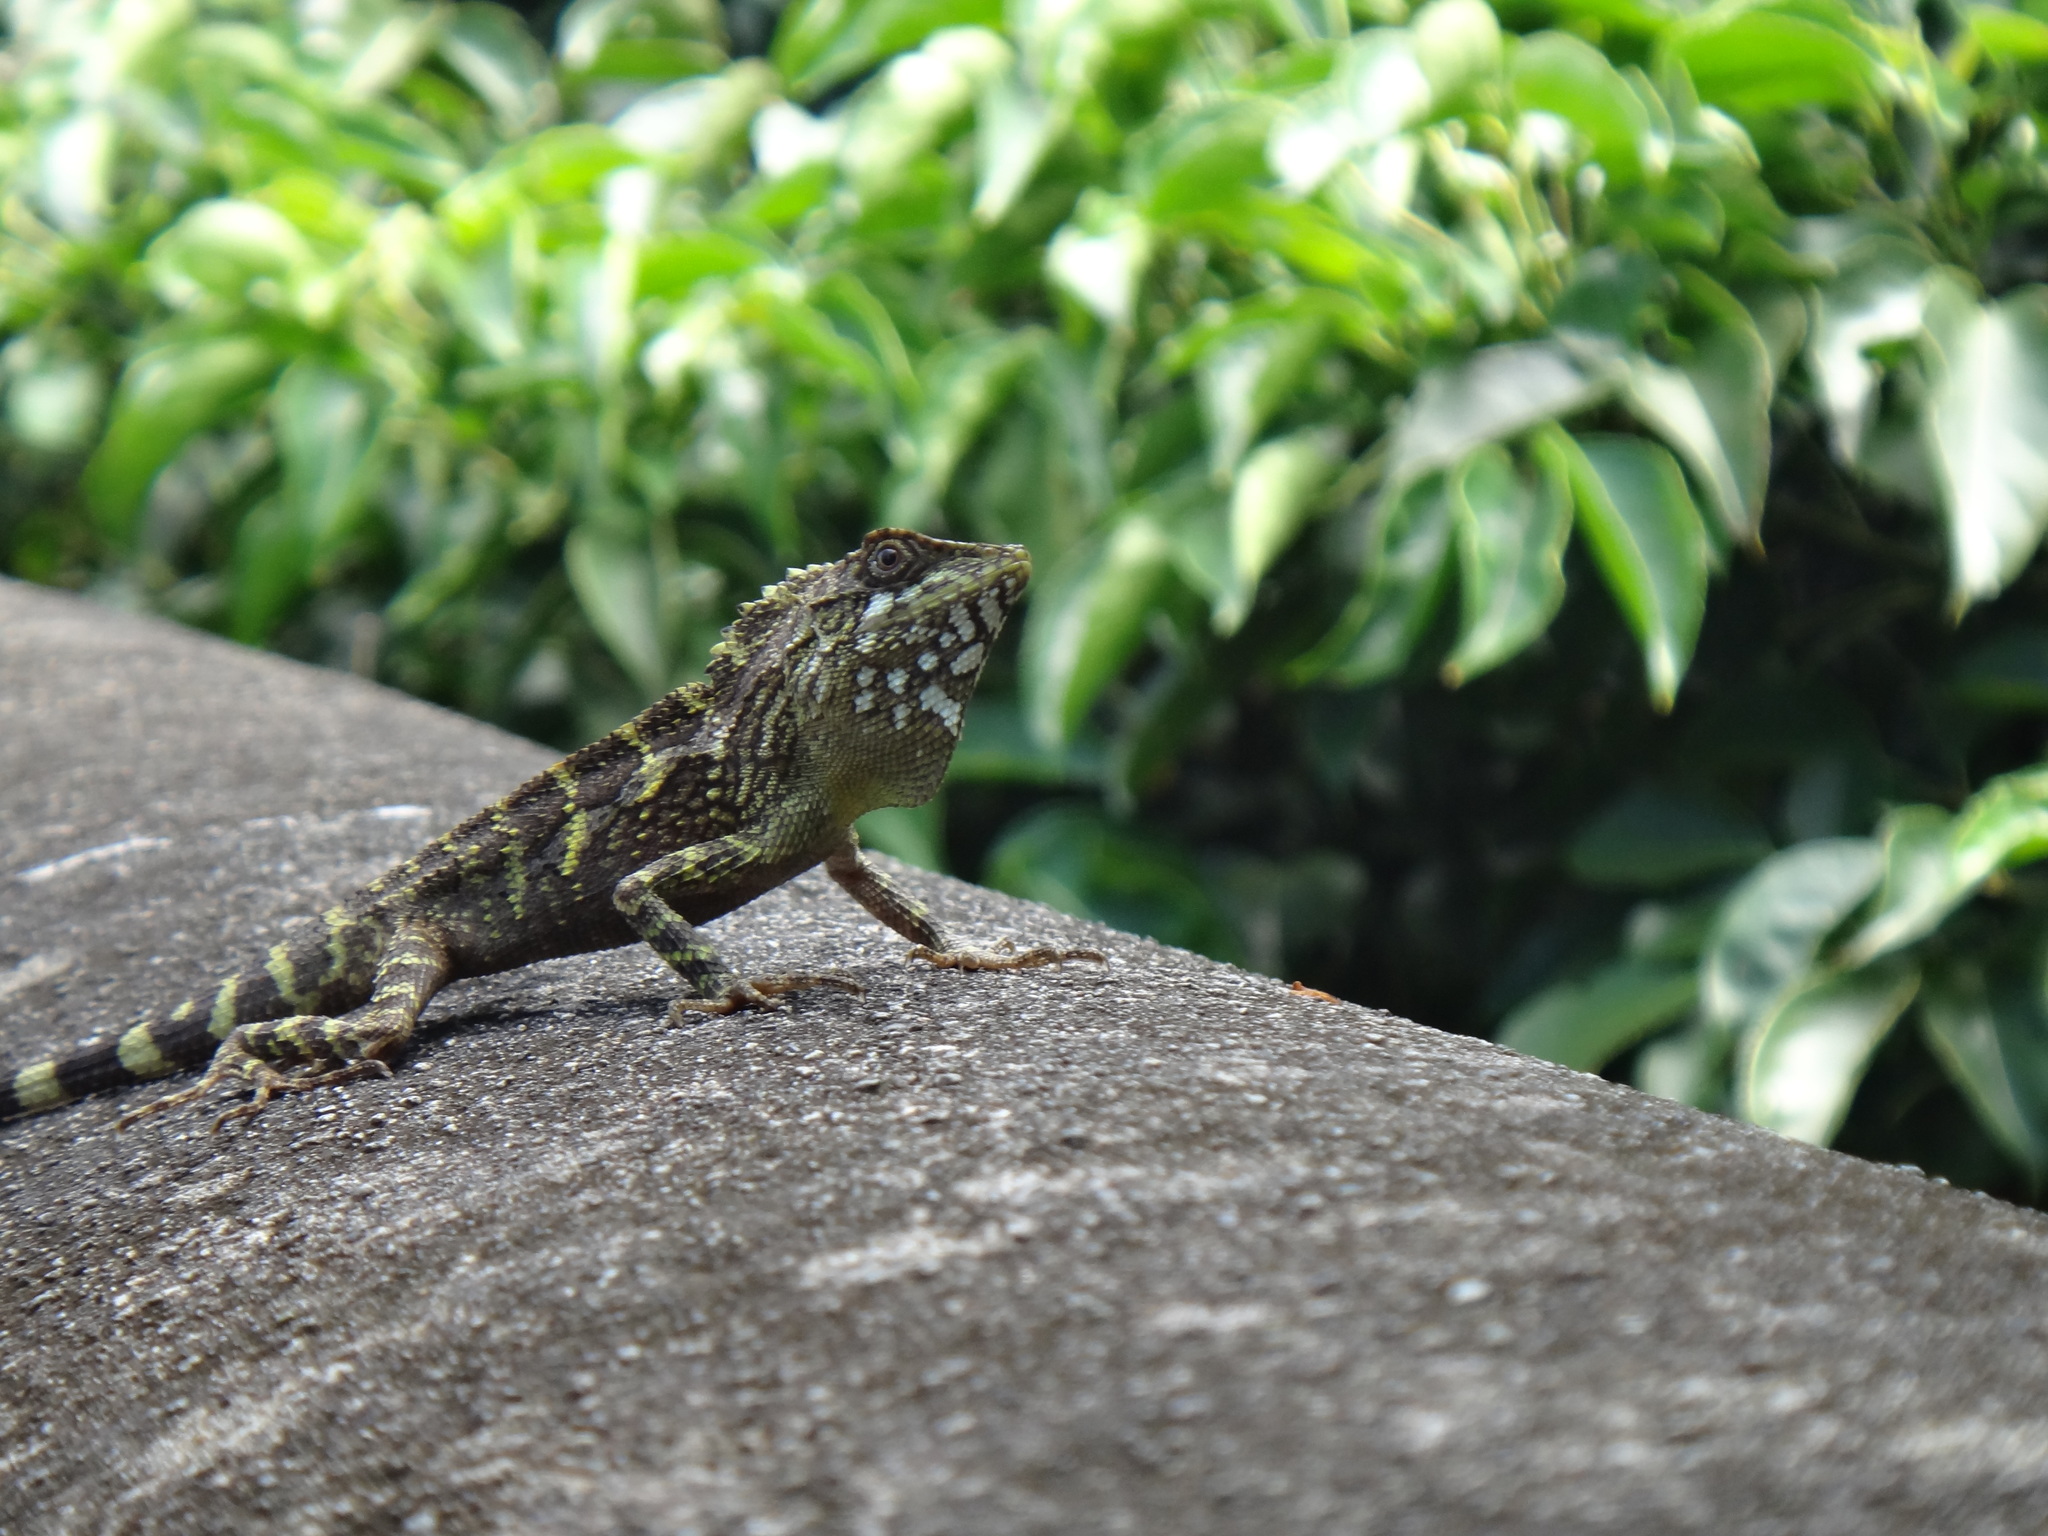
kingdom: Animalia
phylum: Chordata
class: Squamata
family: Agamidae
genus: Diploderma
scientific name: Diploderma swinhonis
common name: Taiwan japalure
